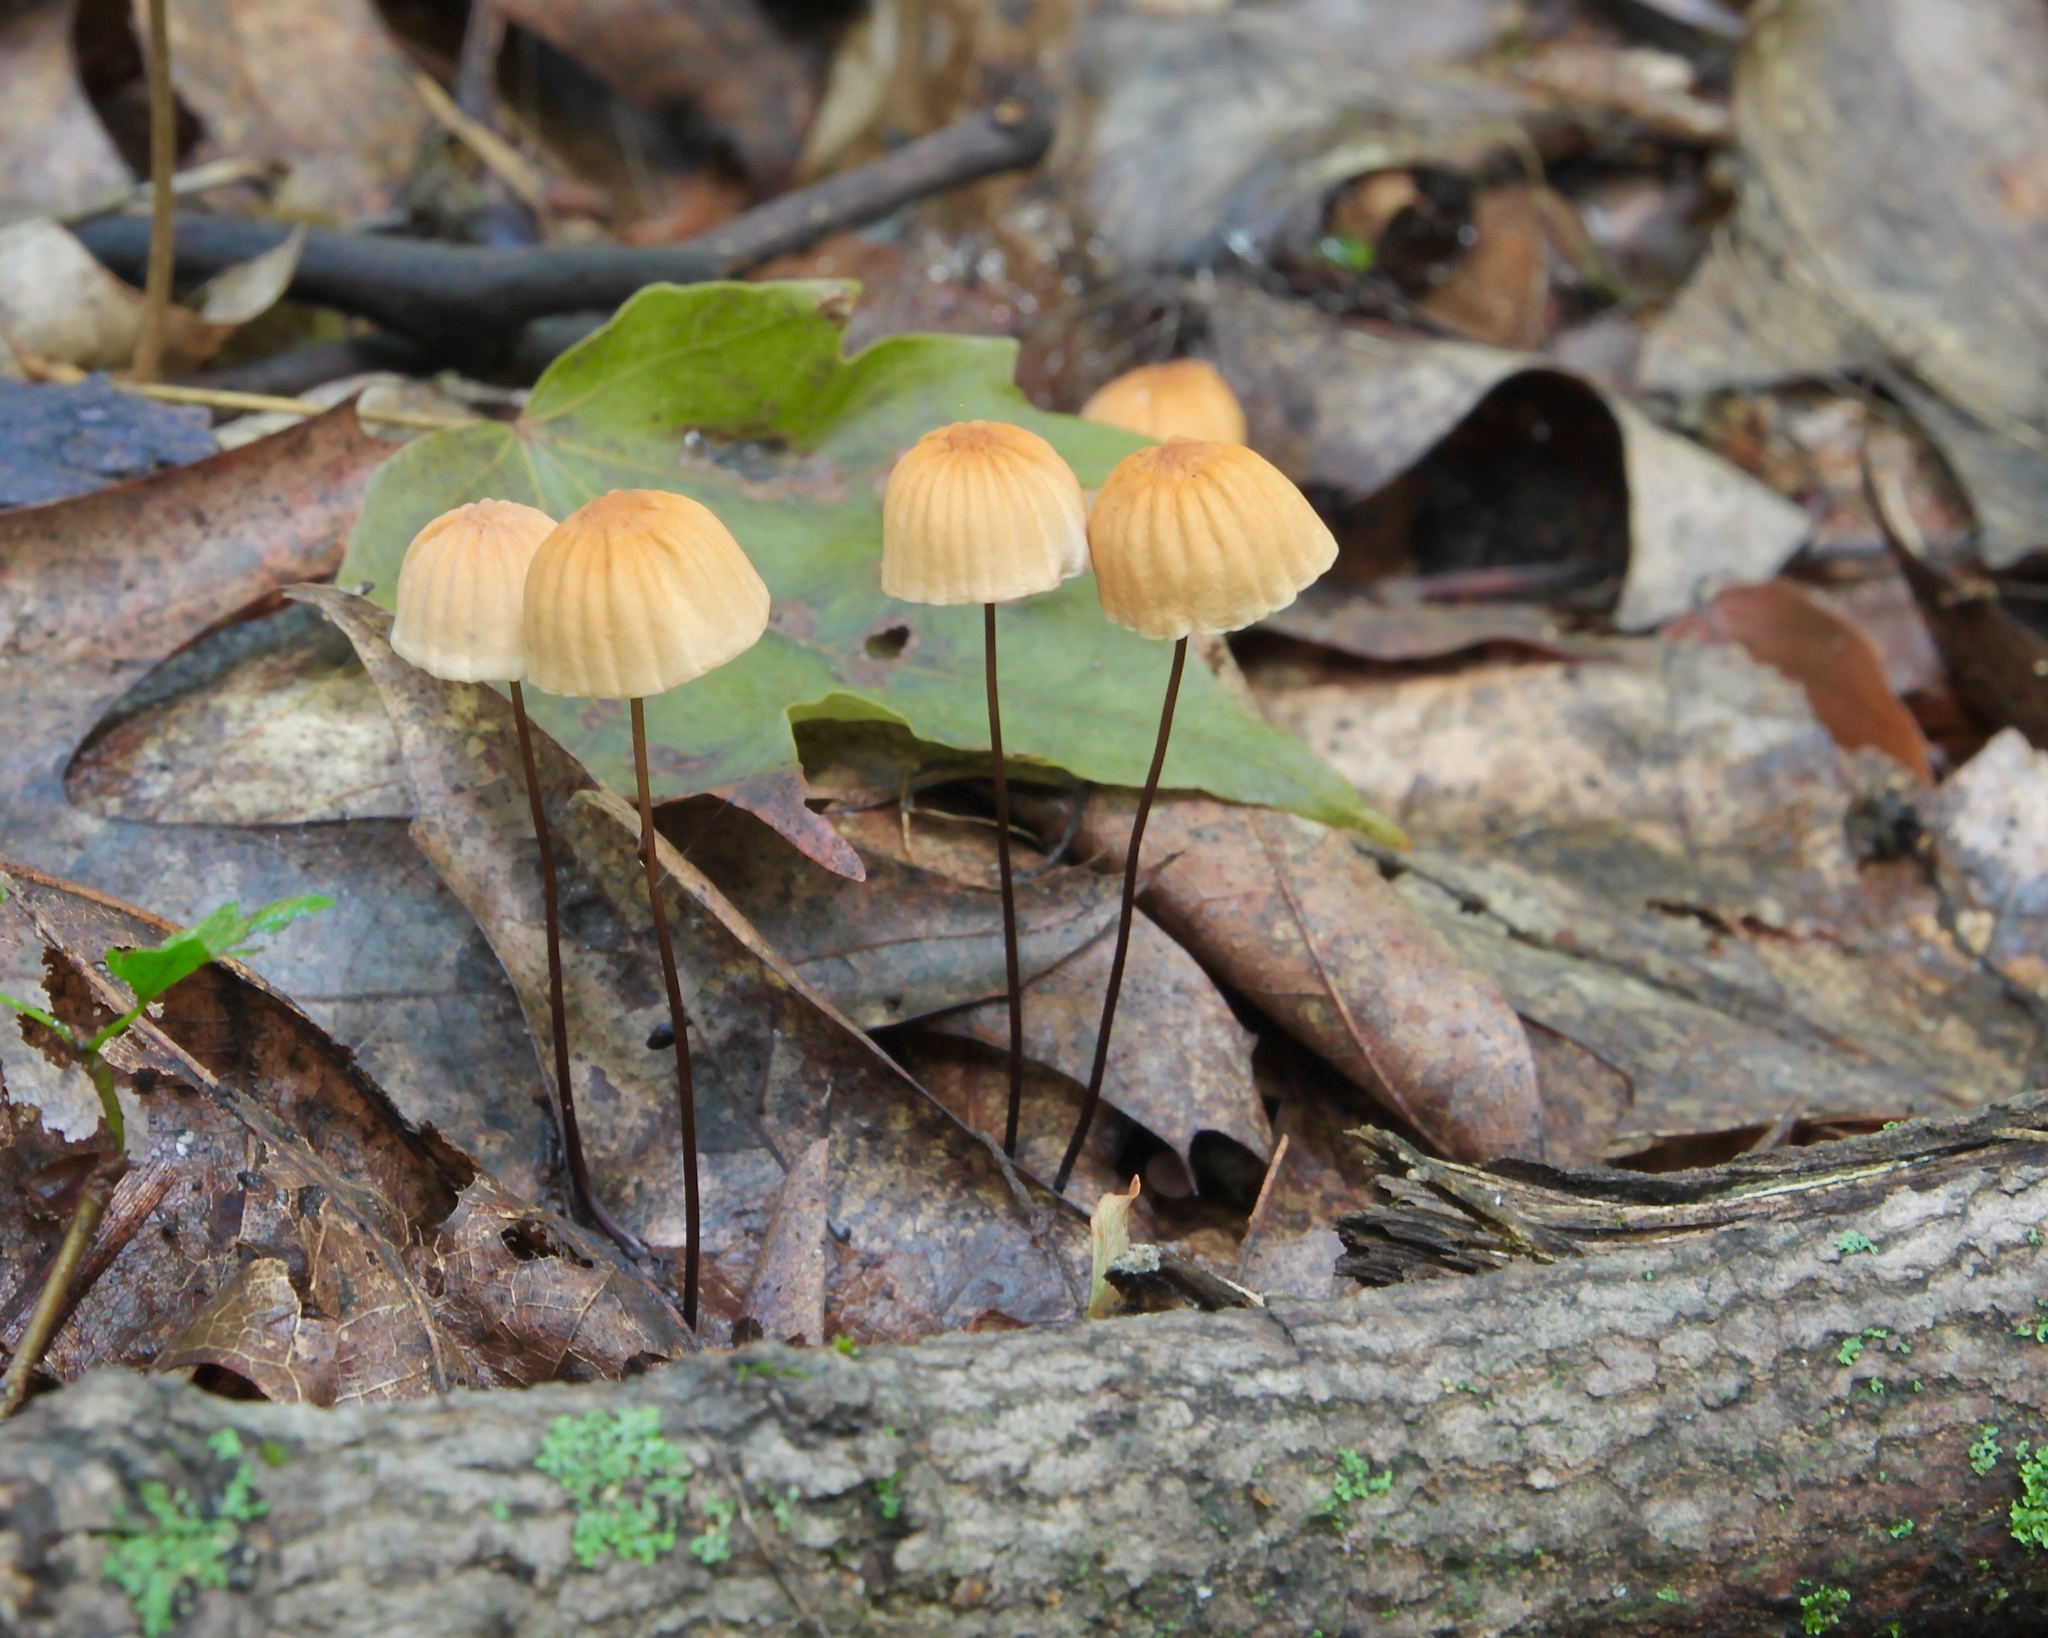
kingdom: Fungi
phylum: Basidiomycota
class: Agaricomycetes
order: Agaricales
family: Marasmiaceae
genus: Marasmius
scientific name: Marasmius siccus
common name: Orange pinwheel
